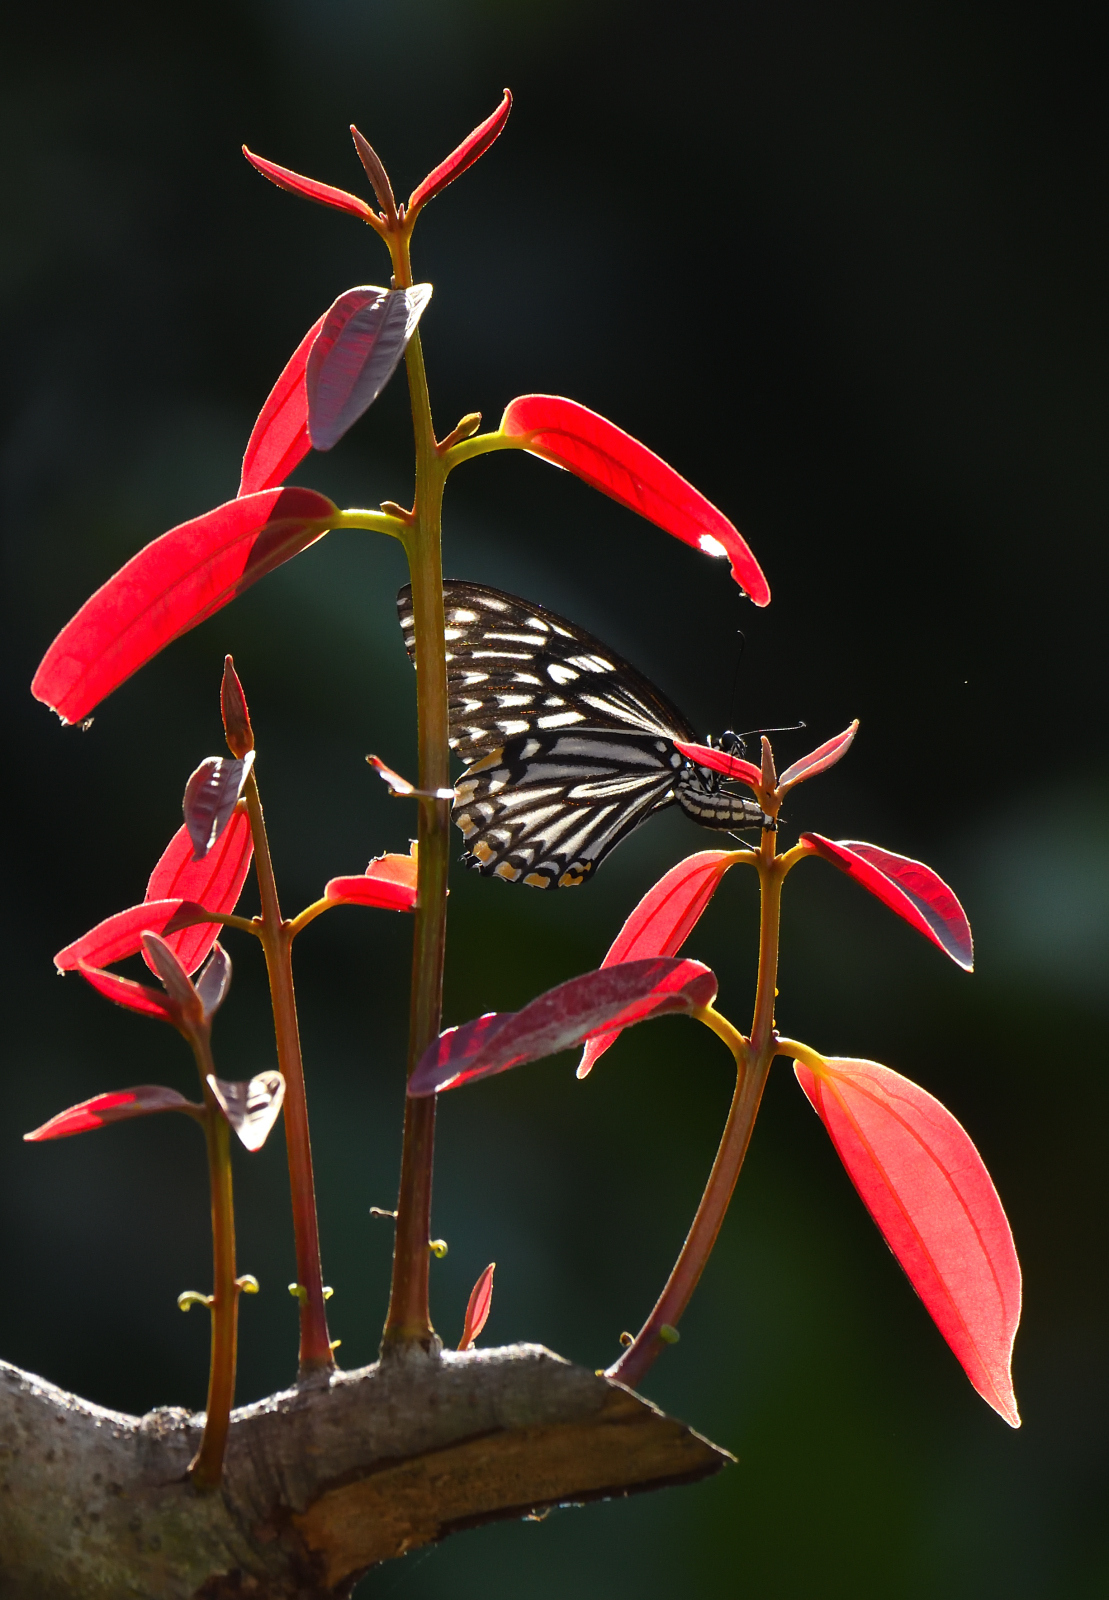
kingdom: Animalia
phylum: Arthropoda
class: Insecta
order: Lepidoptera
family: Papilionidae
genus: Chilasa
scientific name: Chilasa clytia
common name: Common mime
